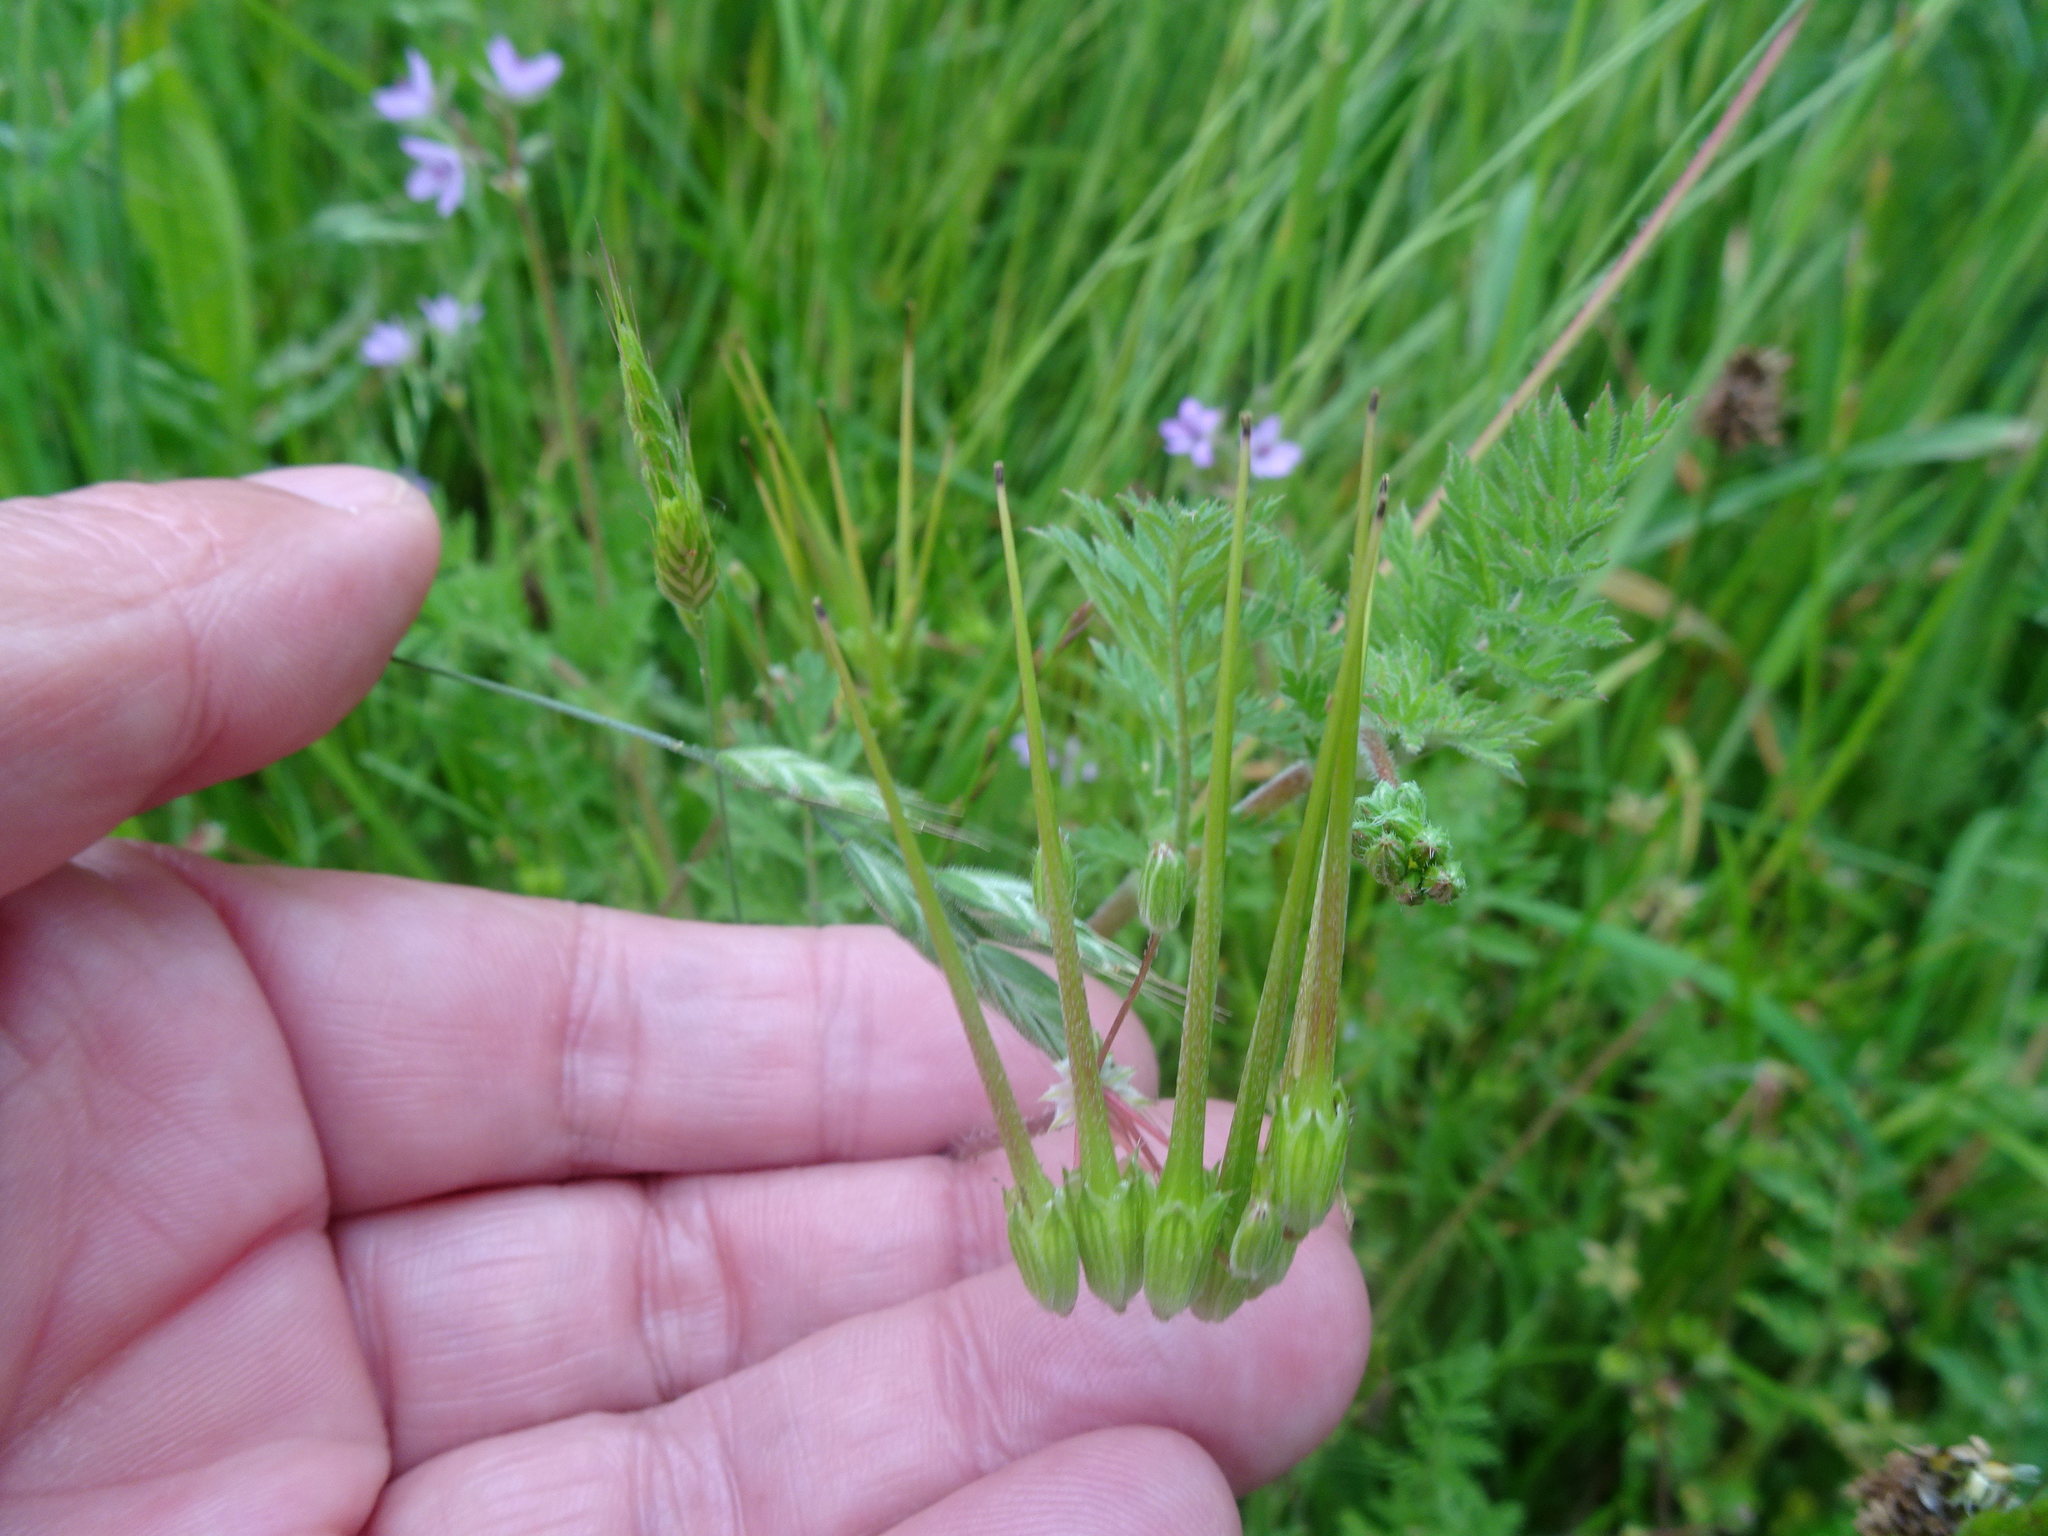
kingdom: Plantae
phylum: Tracheophyta
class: Magnoliopsida
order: Geraniales
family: Geraniaceae
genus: Erodium
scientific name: Erodium cicutarium
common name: Common stork's-bill
